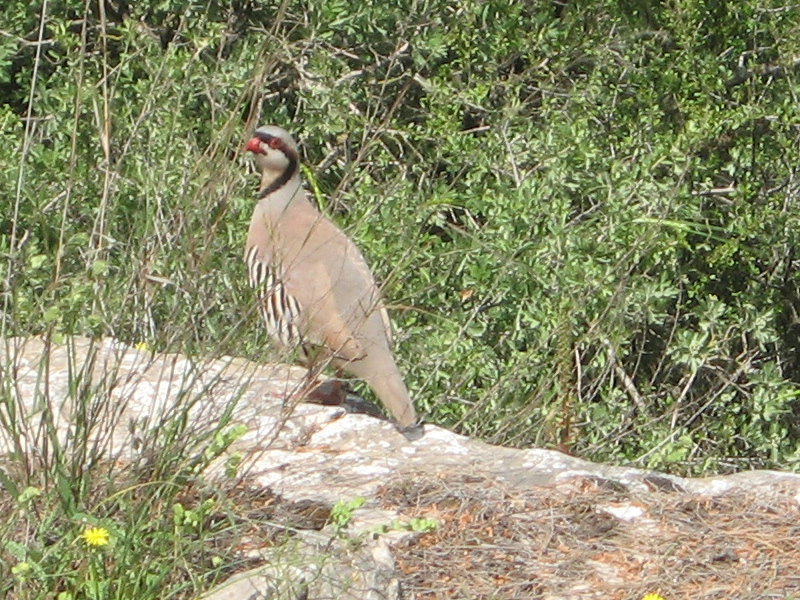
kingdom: Animalia
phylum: Chordata
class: Aves
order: Galliformes
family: Phasianidae
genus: Alectoris
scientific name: Alectoris chukar
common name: Chukar
